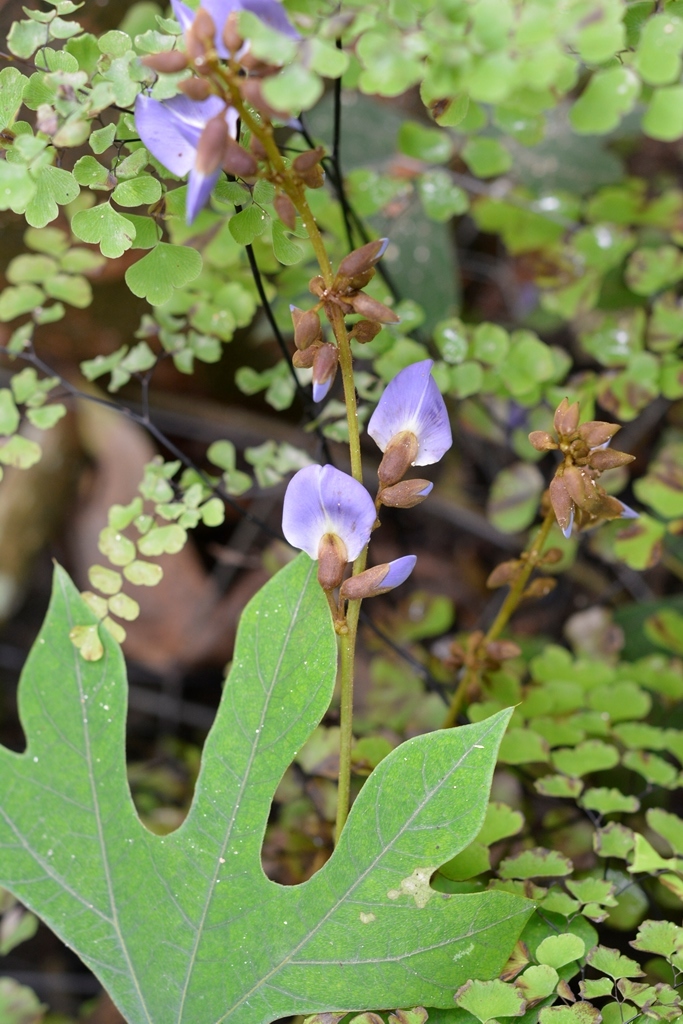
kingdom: Plantae
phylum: Tracheophyta
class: Magnoliopsida
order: Fabales
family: Fabaceae
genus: Pachyrhizus
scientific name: Pachyrhizus erosus
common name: Yam bean
